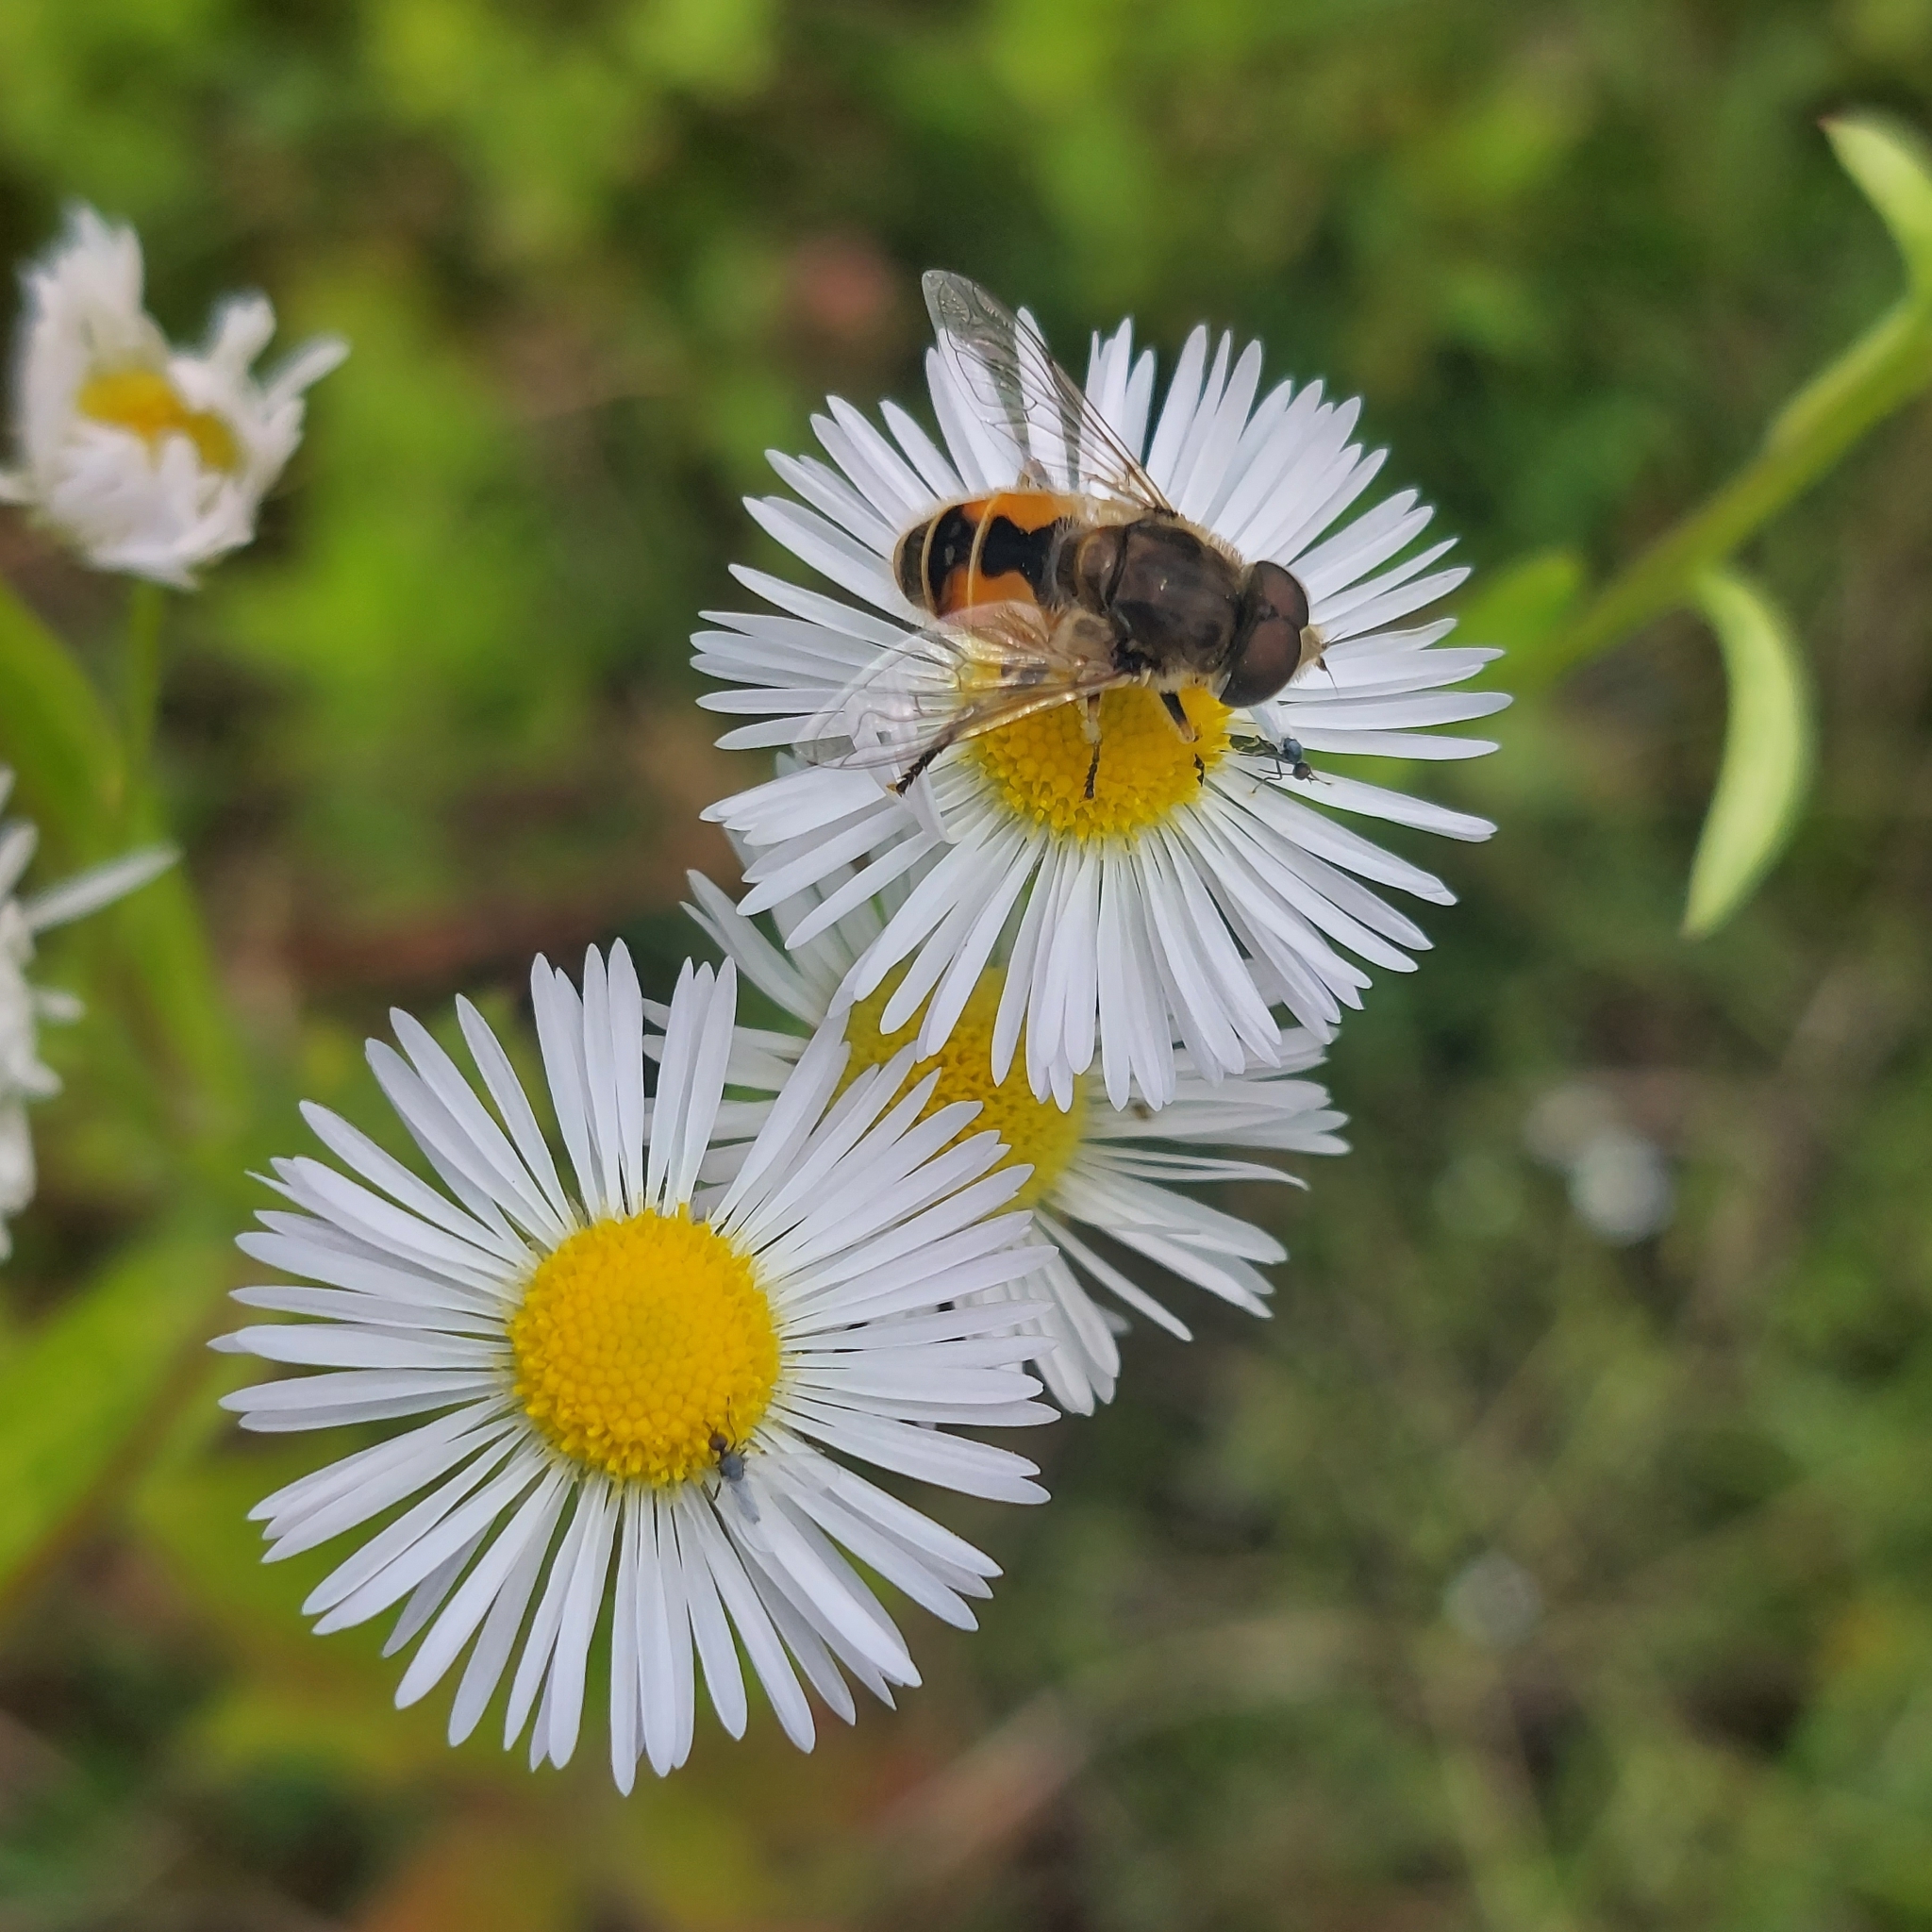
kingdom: Animalia
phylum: Arthropoda
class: Insecta
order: Diptera
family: Syrphidae
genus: Eristalis
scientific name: Eristalis arbustorum
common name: Hover fly
